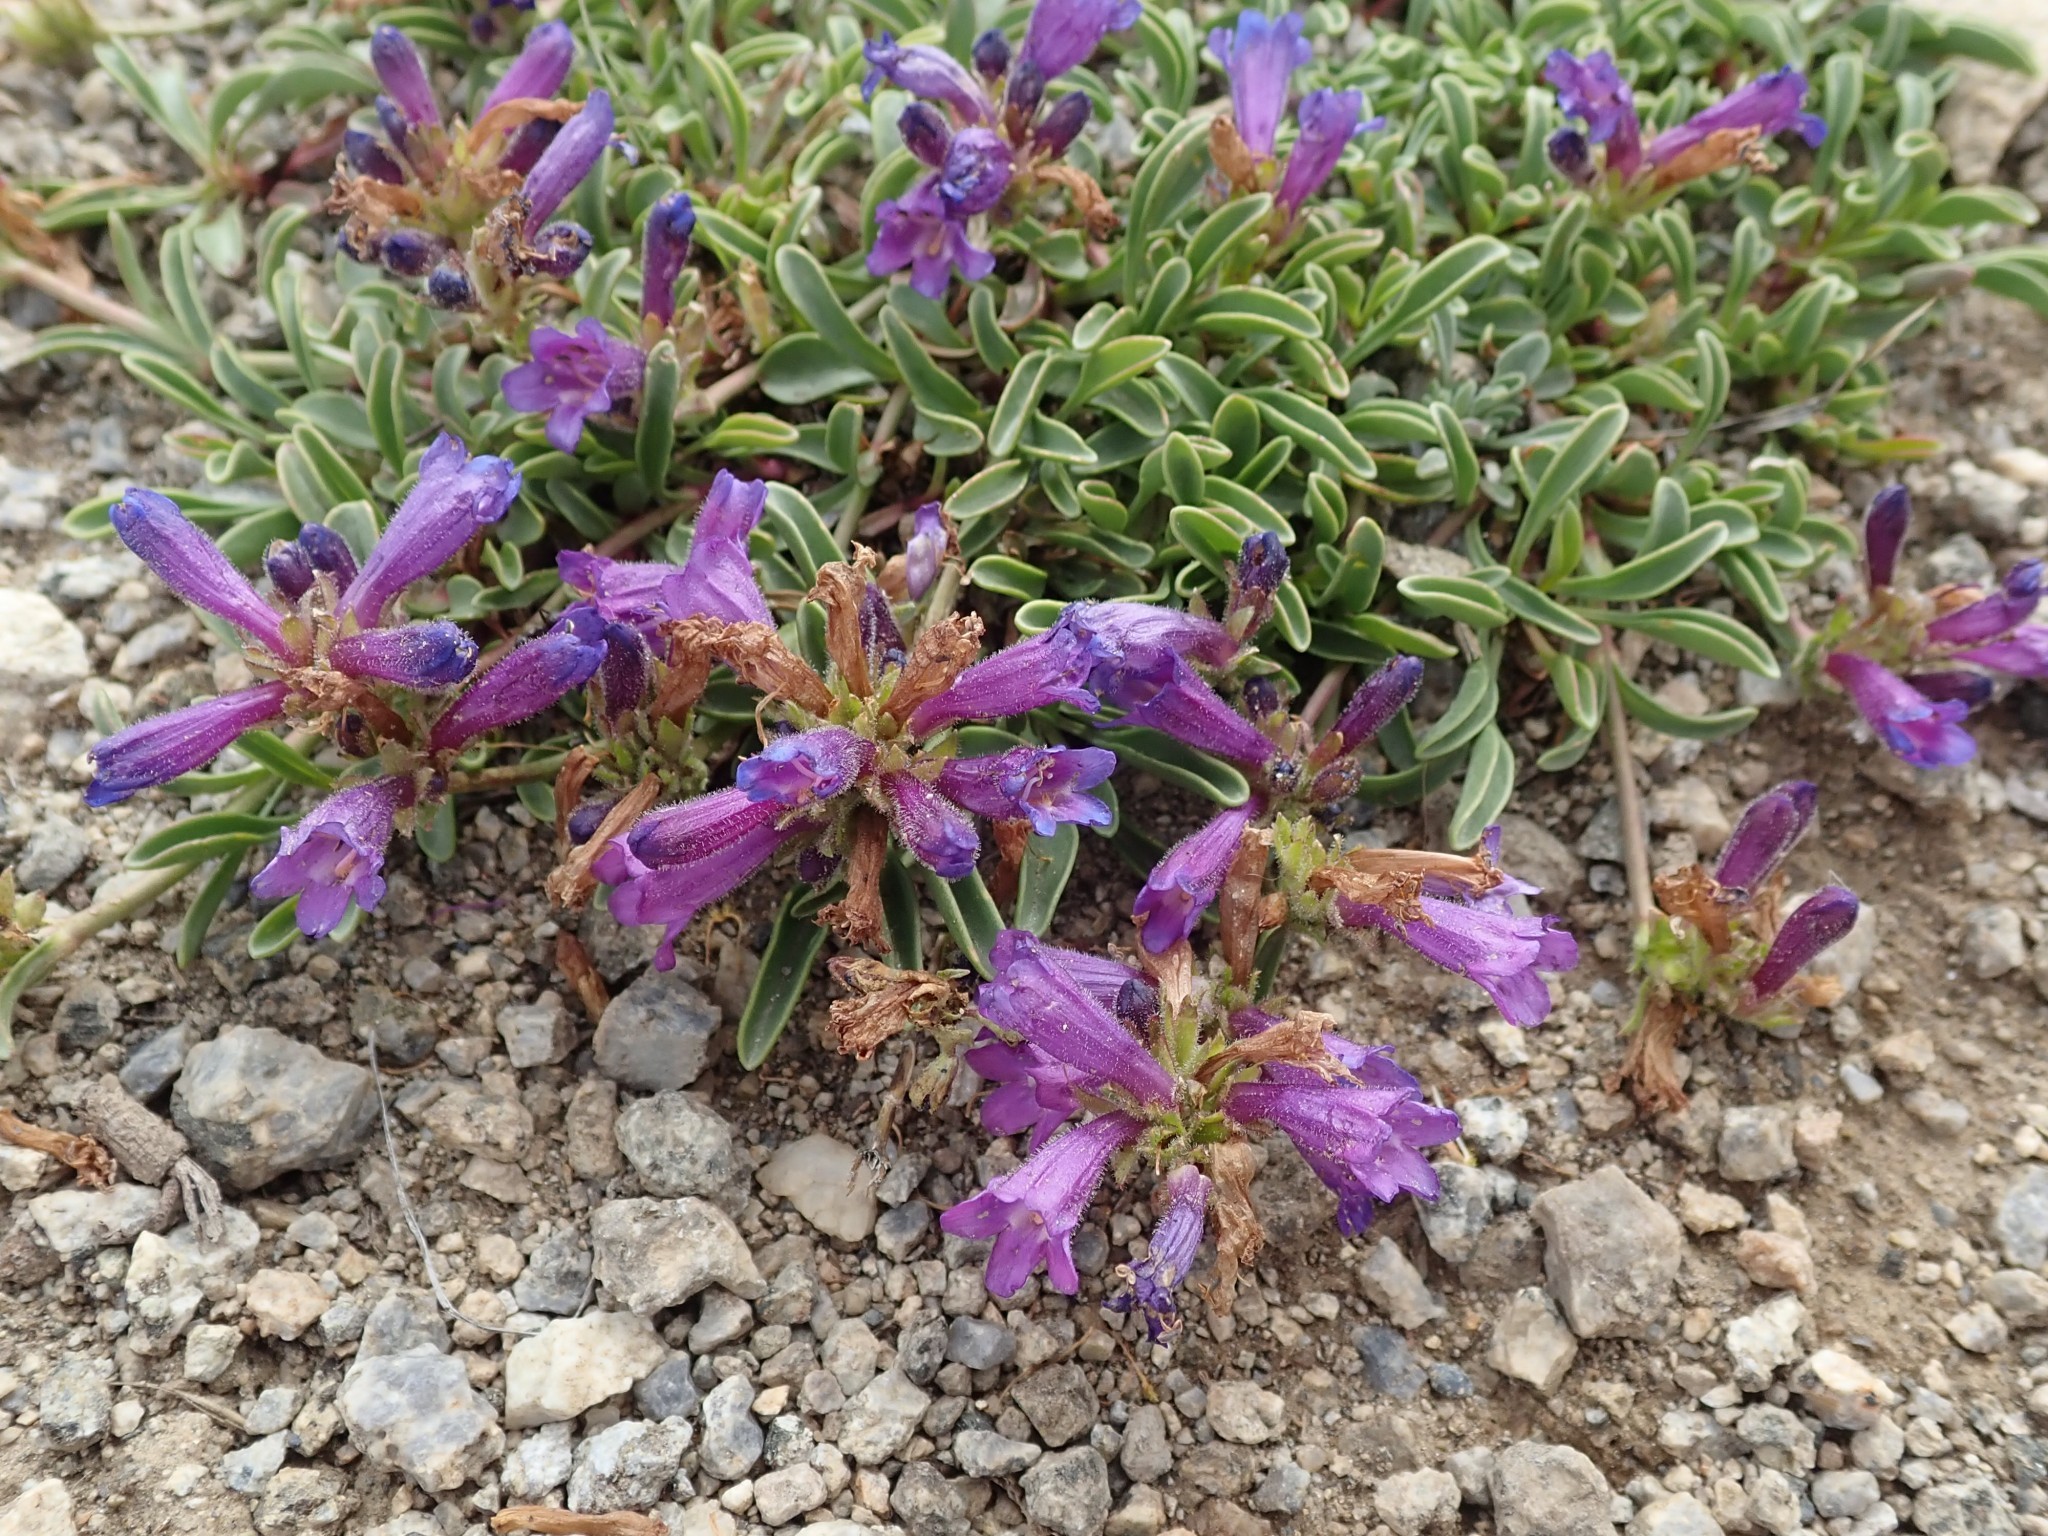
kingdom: Plantae
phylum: Tracheophyta
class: Magnoliopsida
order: Lamiales
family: Plantaginaceae
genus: Penstemon
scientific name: Penstemon heterodoxus
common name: Sierran penstemon
